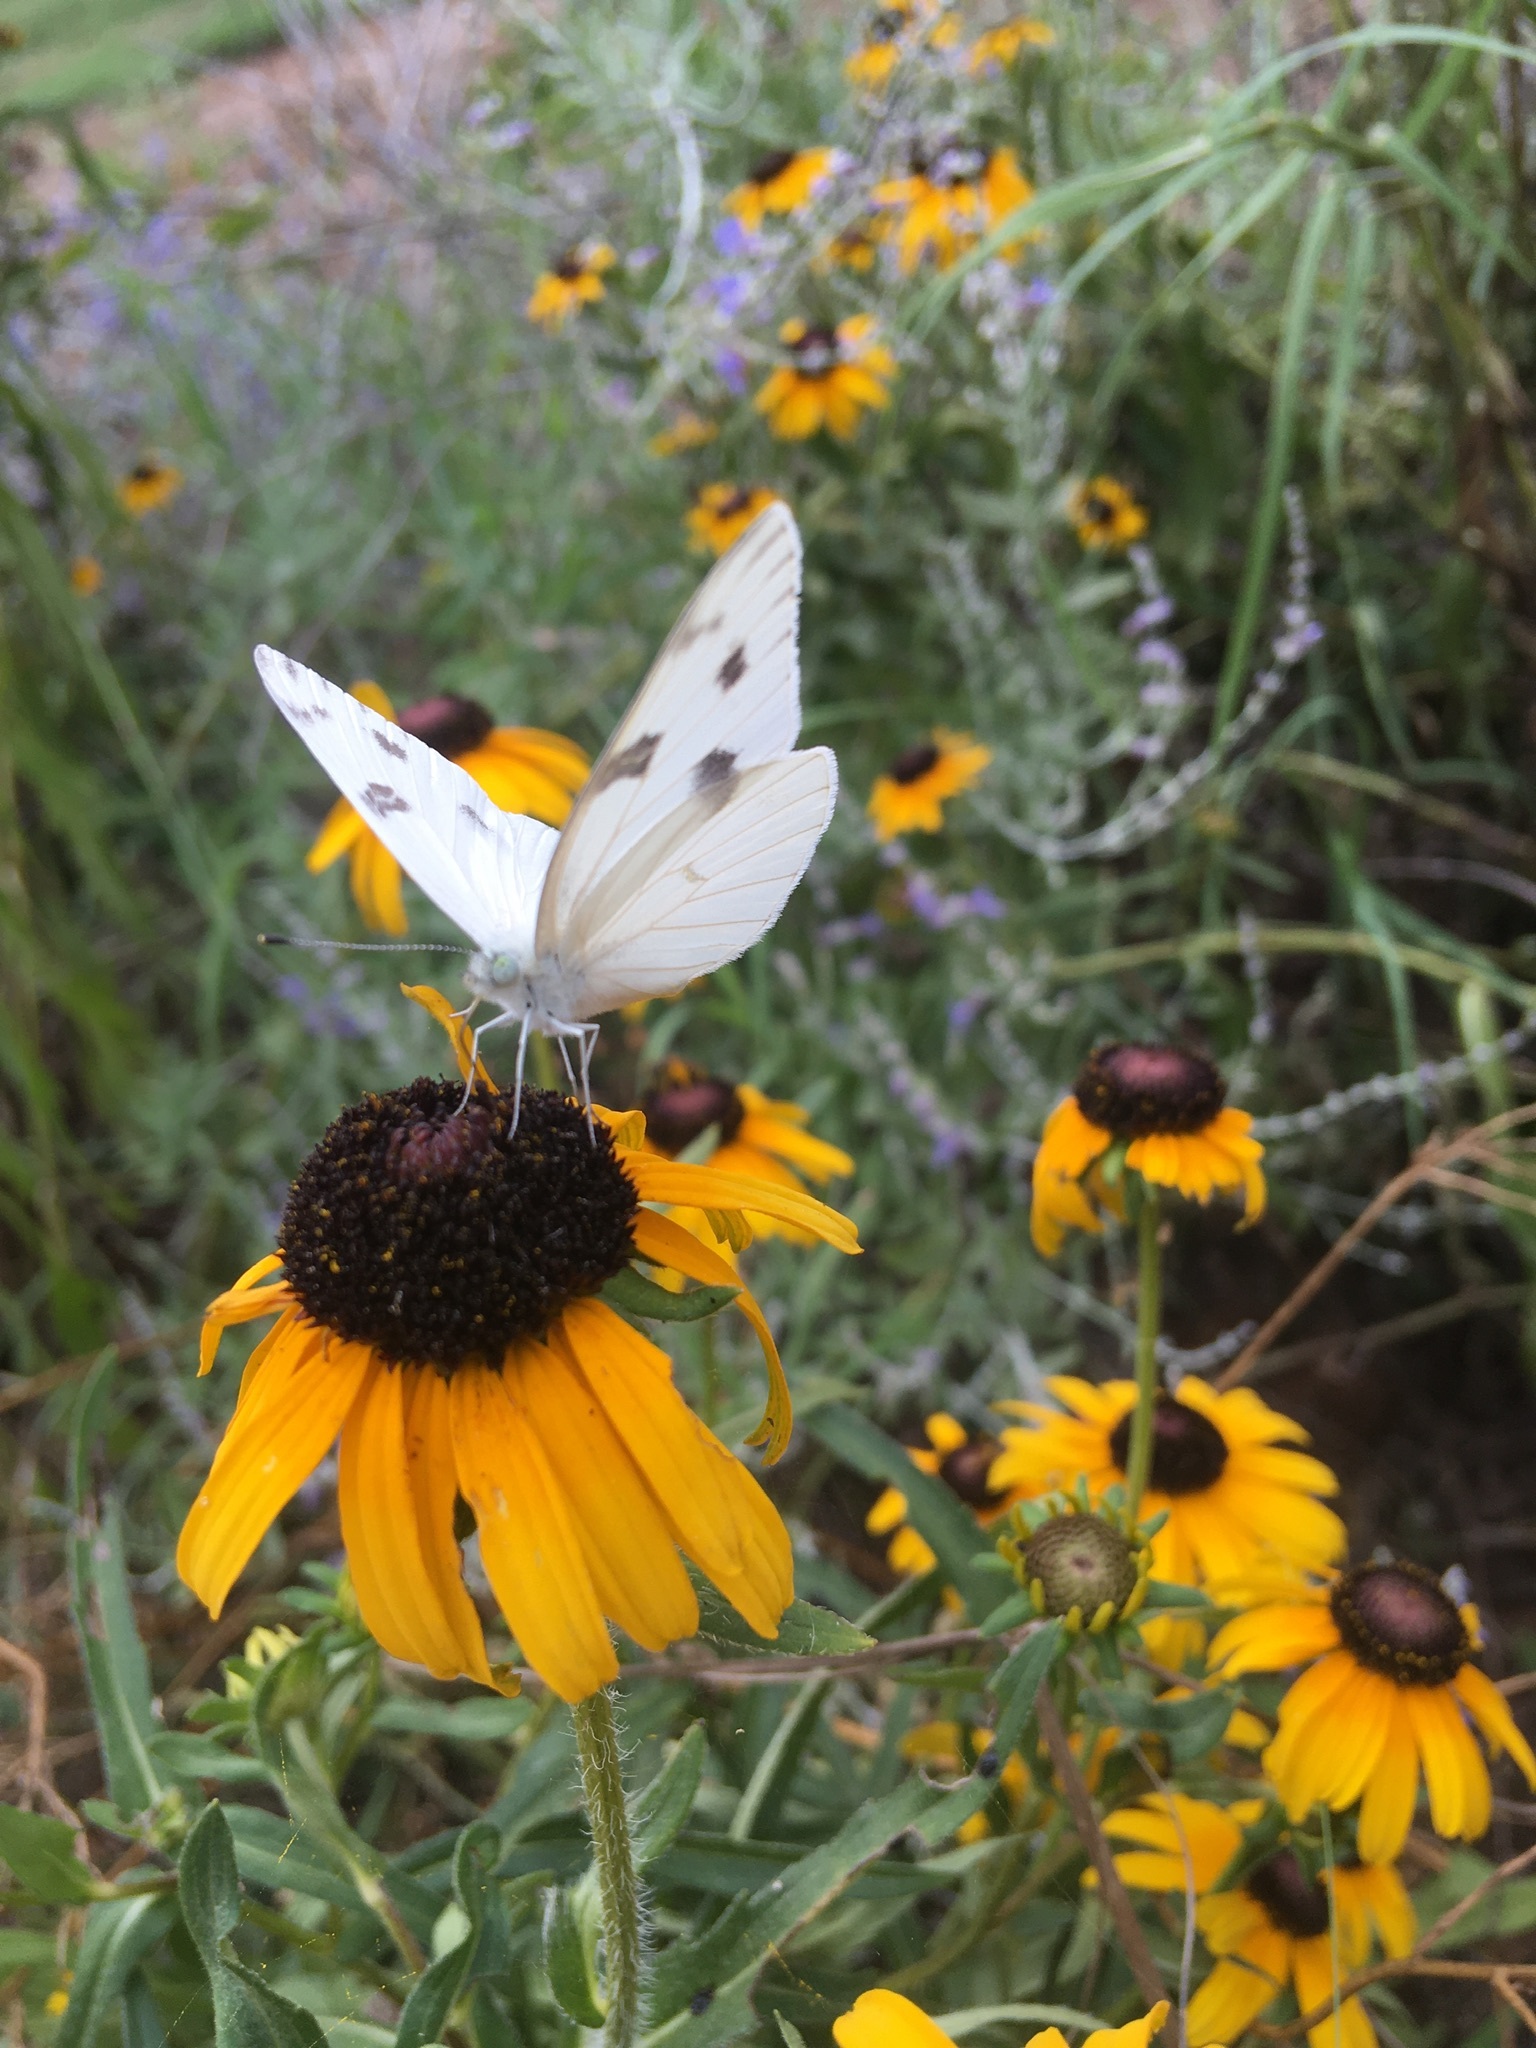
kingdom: Animalia
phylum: Arthropoda
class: Insecta
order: Lepidoptera
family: Pieridae
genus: Pontia
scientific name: Pontia protodice
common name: Checkered white
